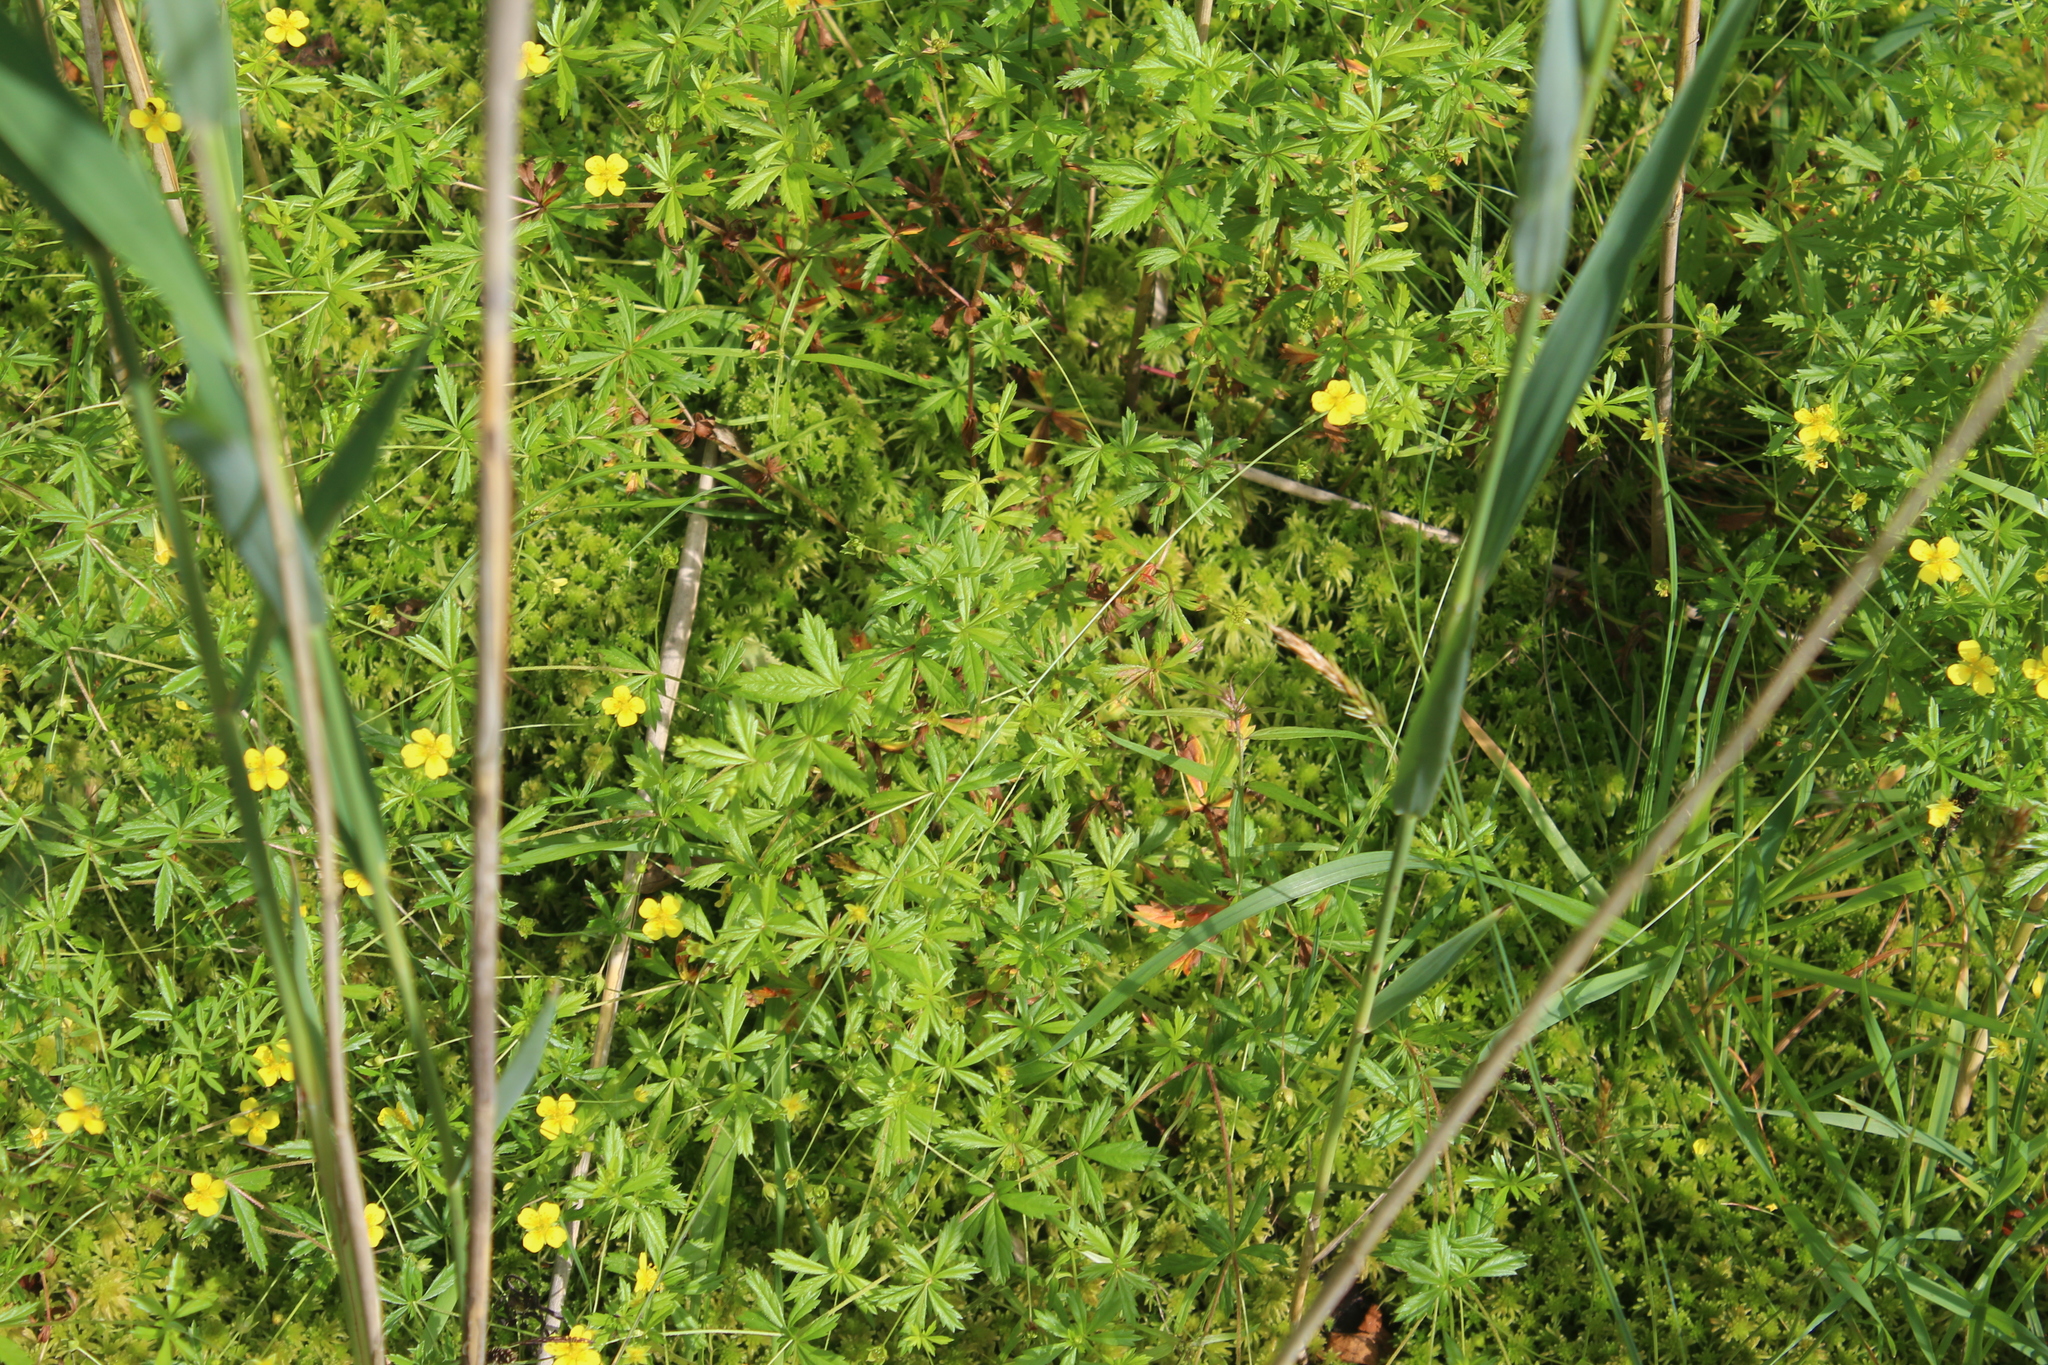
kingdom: Plantae
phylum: Tracheophyta
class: Magnoliopsida
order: Rosales
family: Rosaceae
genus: Potentilla
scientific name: Potentilla erecta
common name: Tormentil
